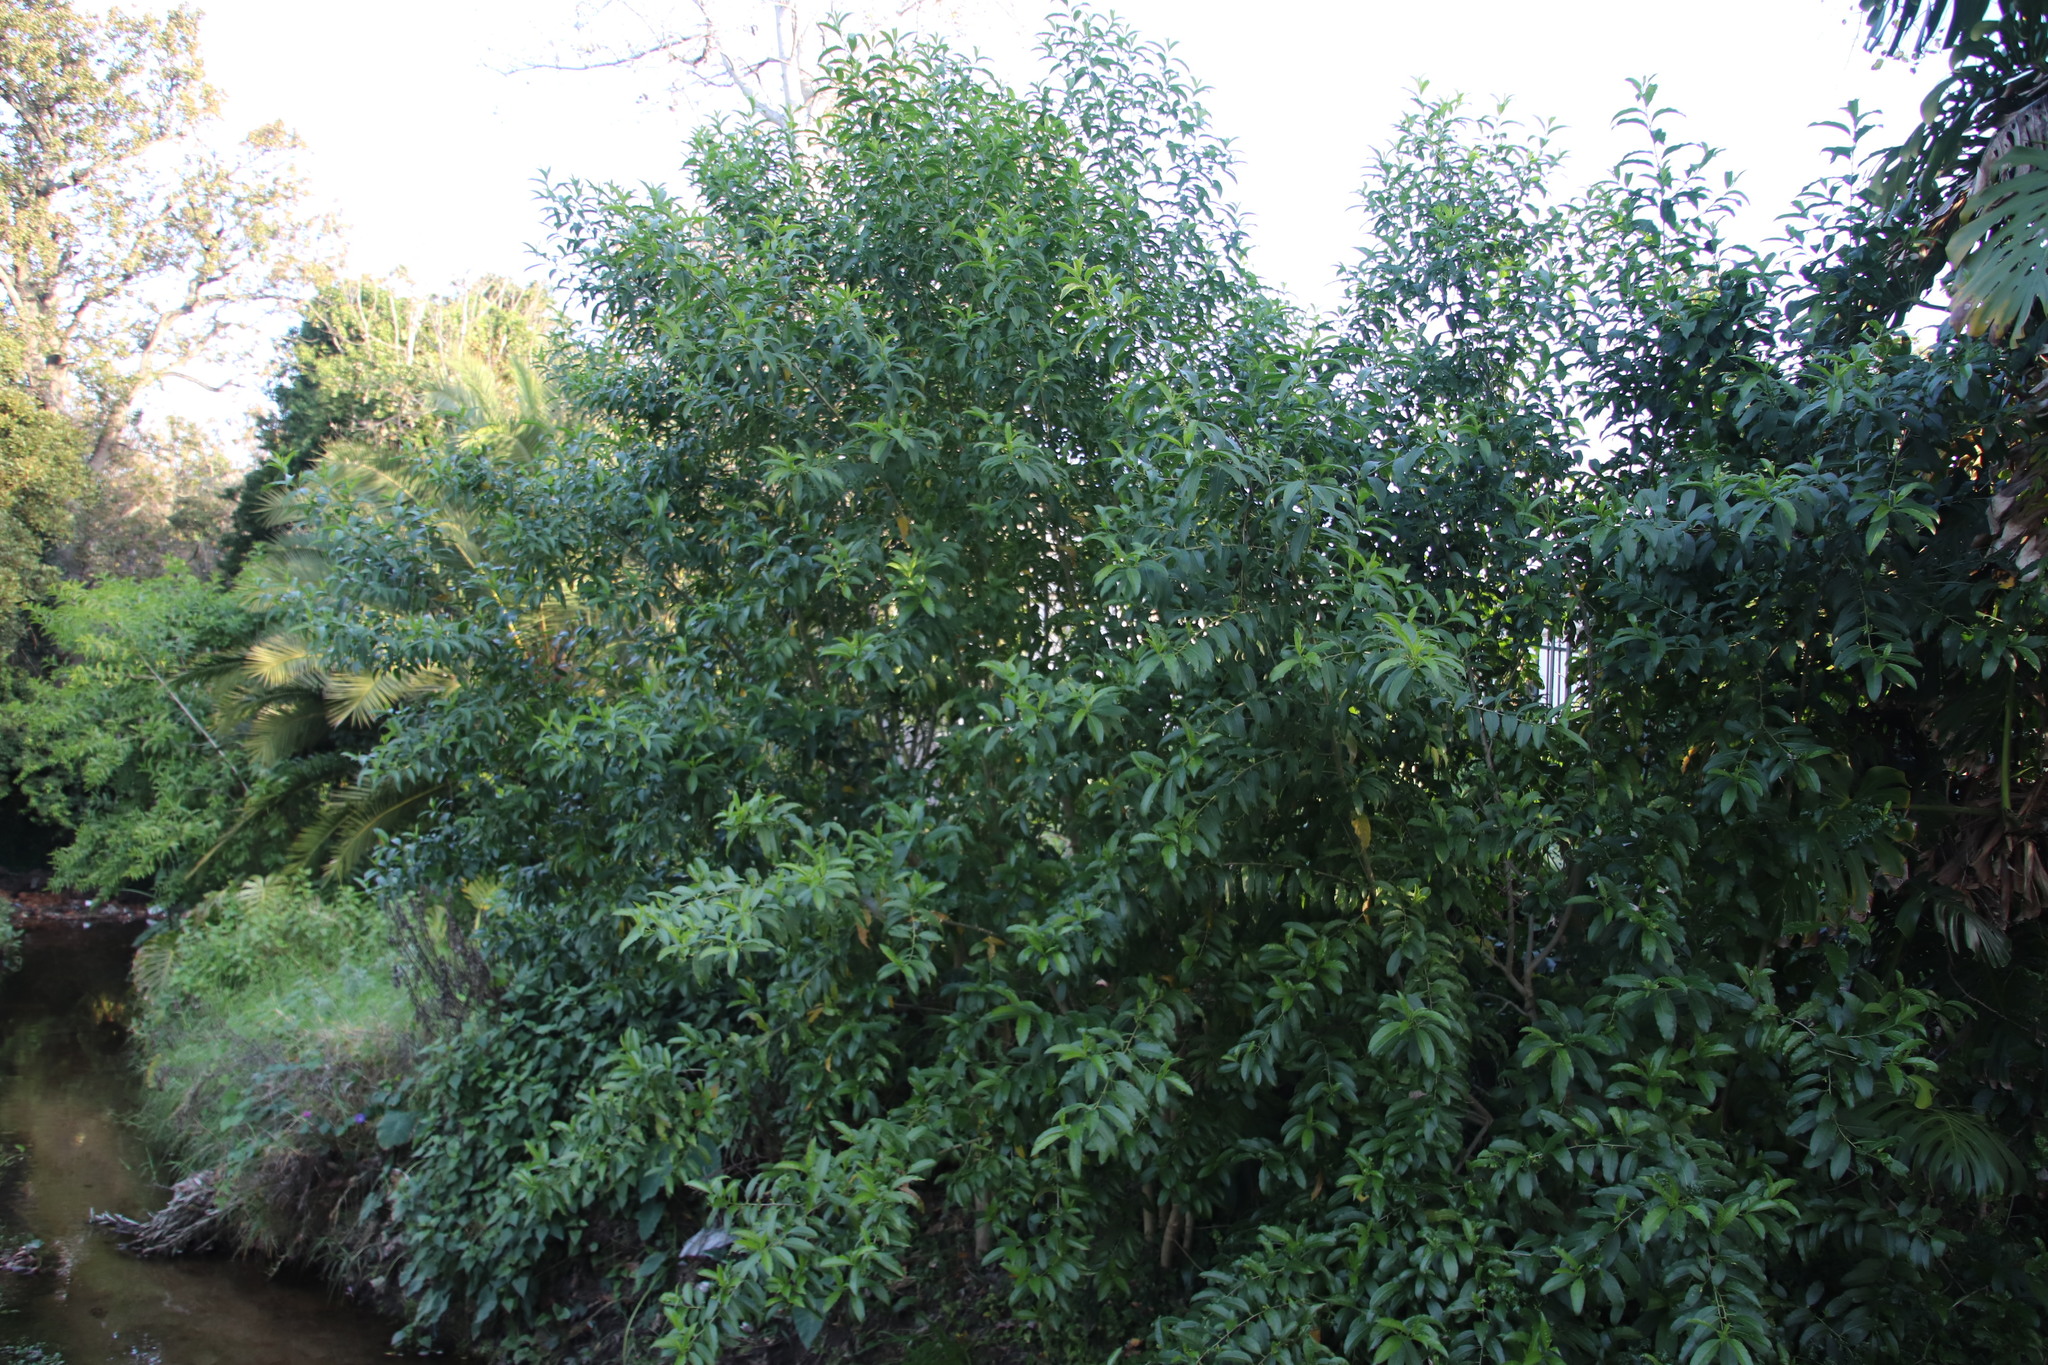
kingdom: Plantae
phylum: Tracheophyta
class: Magnoliopsida
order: Solanales
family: Solanaceae
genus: Cestrum
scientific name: Cestrum laevigatum
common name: Inkberry
